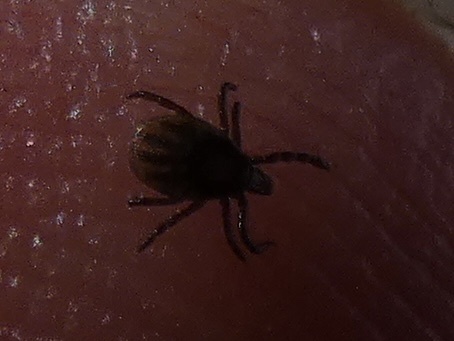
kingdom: Animalia
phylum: Arthropoda
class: Arachnida
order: Ixodida
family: Ixodidae
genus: Ixodes
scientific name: Ixodes ricinus
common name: Castor bean tick
